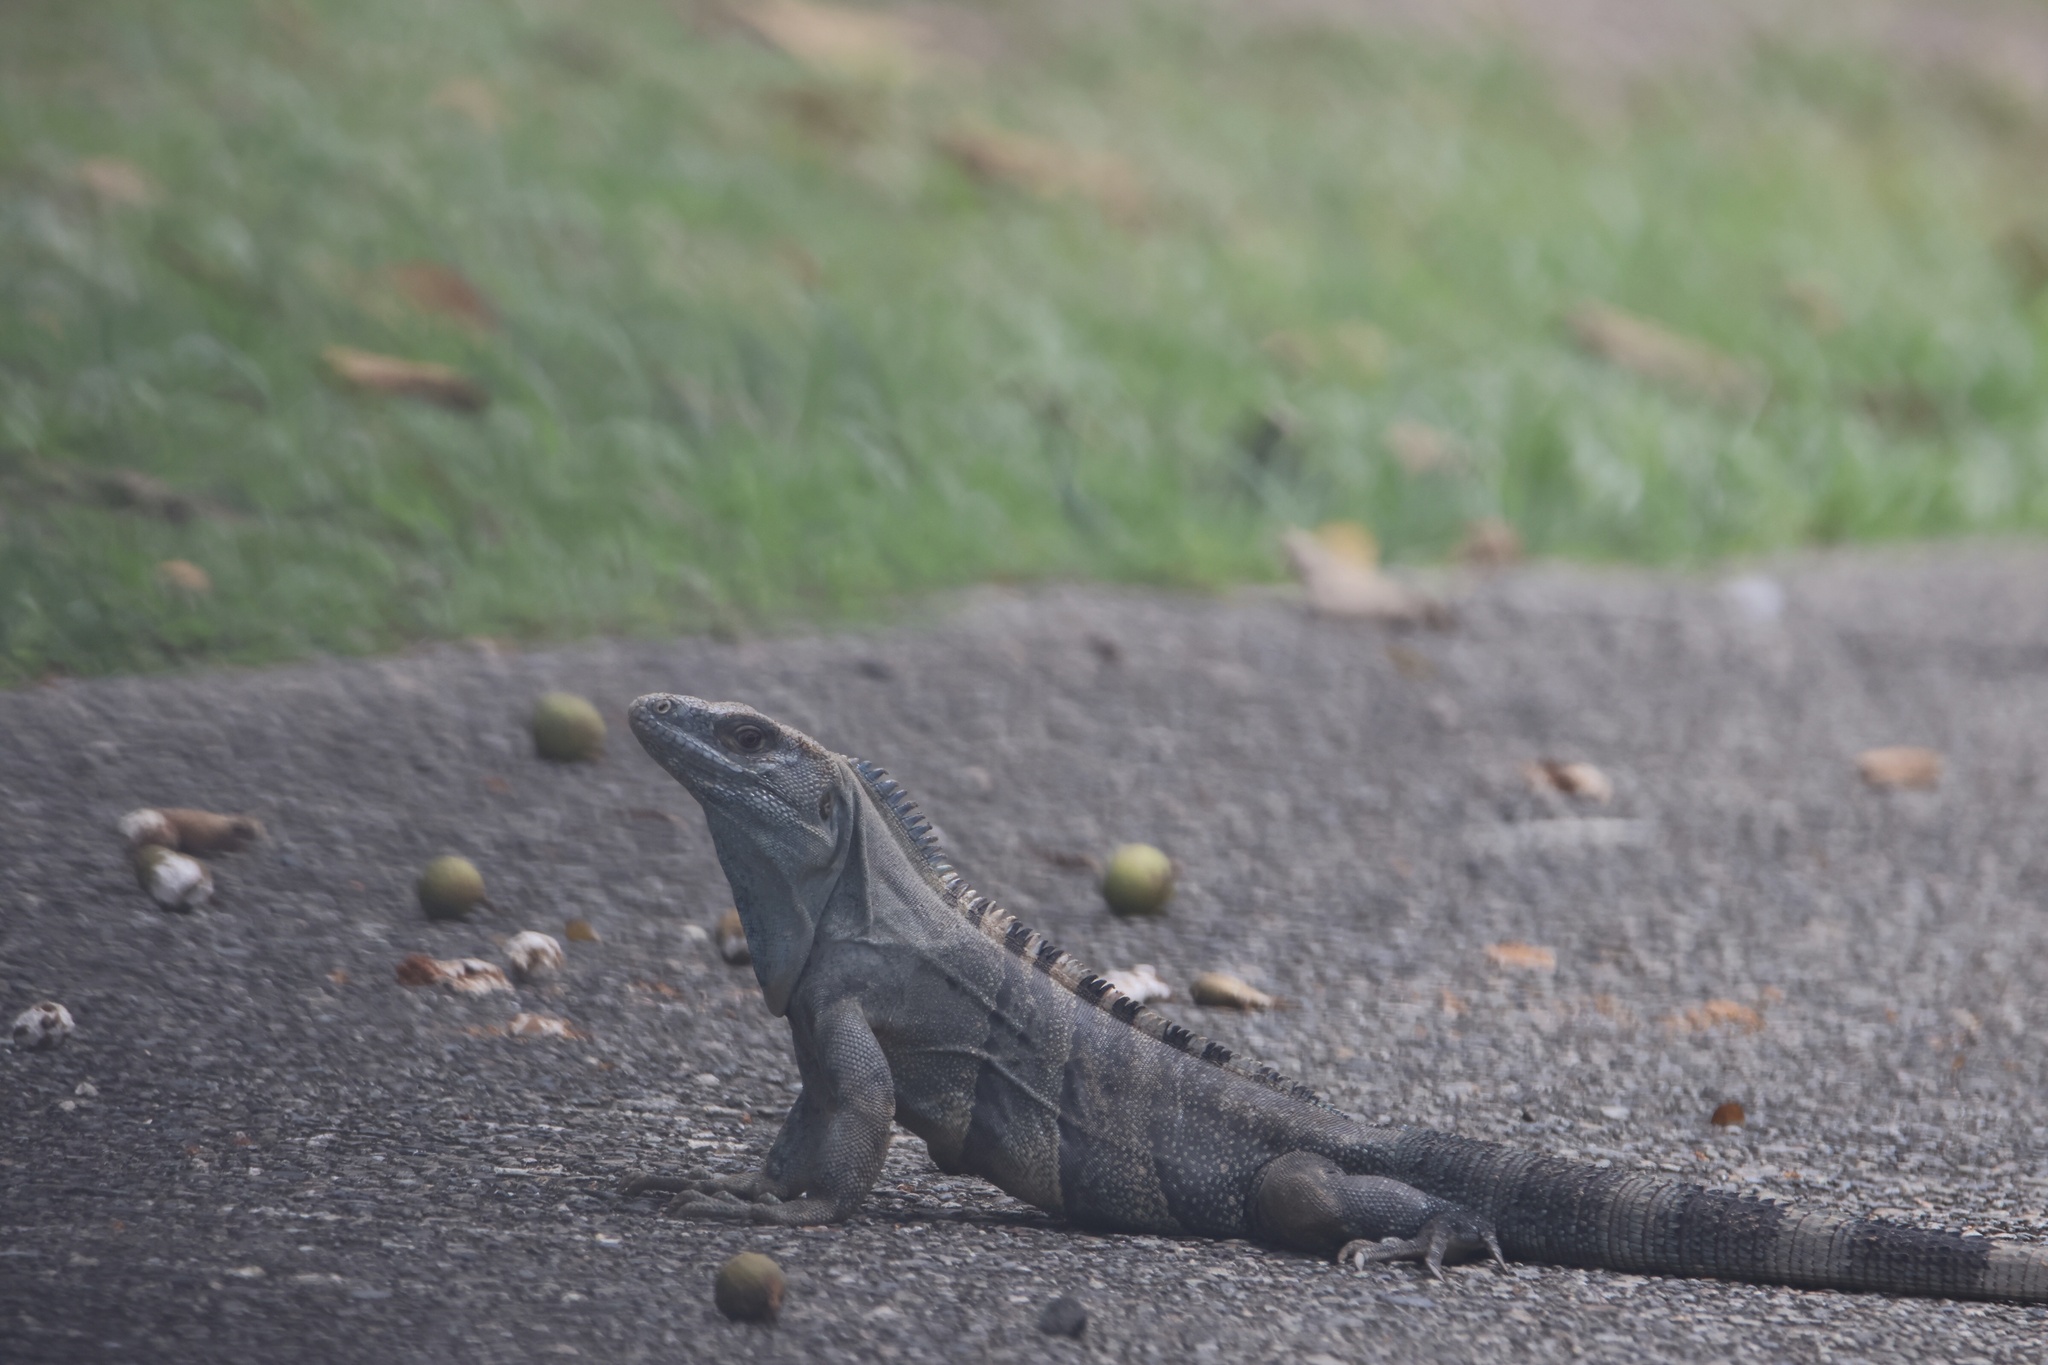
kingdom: Animalia
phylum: Chordata
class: Squamata
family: Iguanidae
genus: Ctenosaura
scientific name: Ctenosaura similis
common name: Black spiny-tailed iguana
